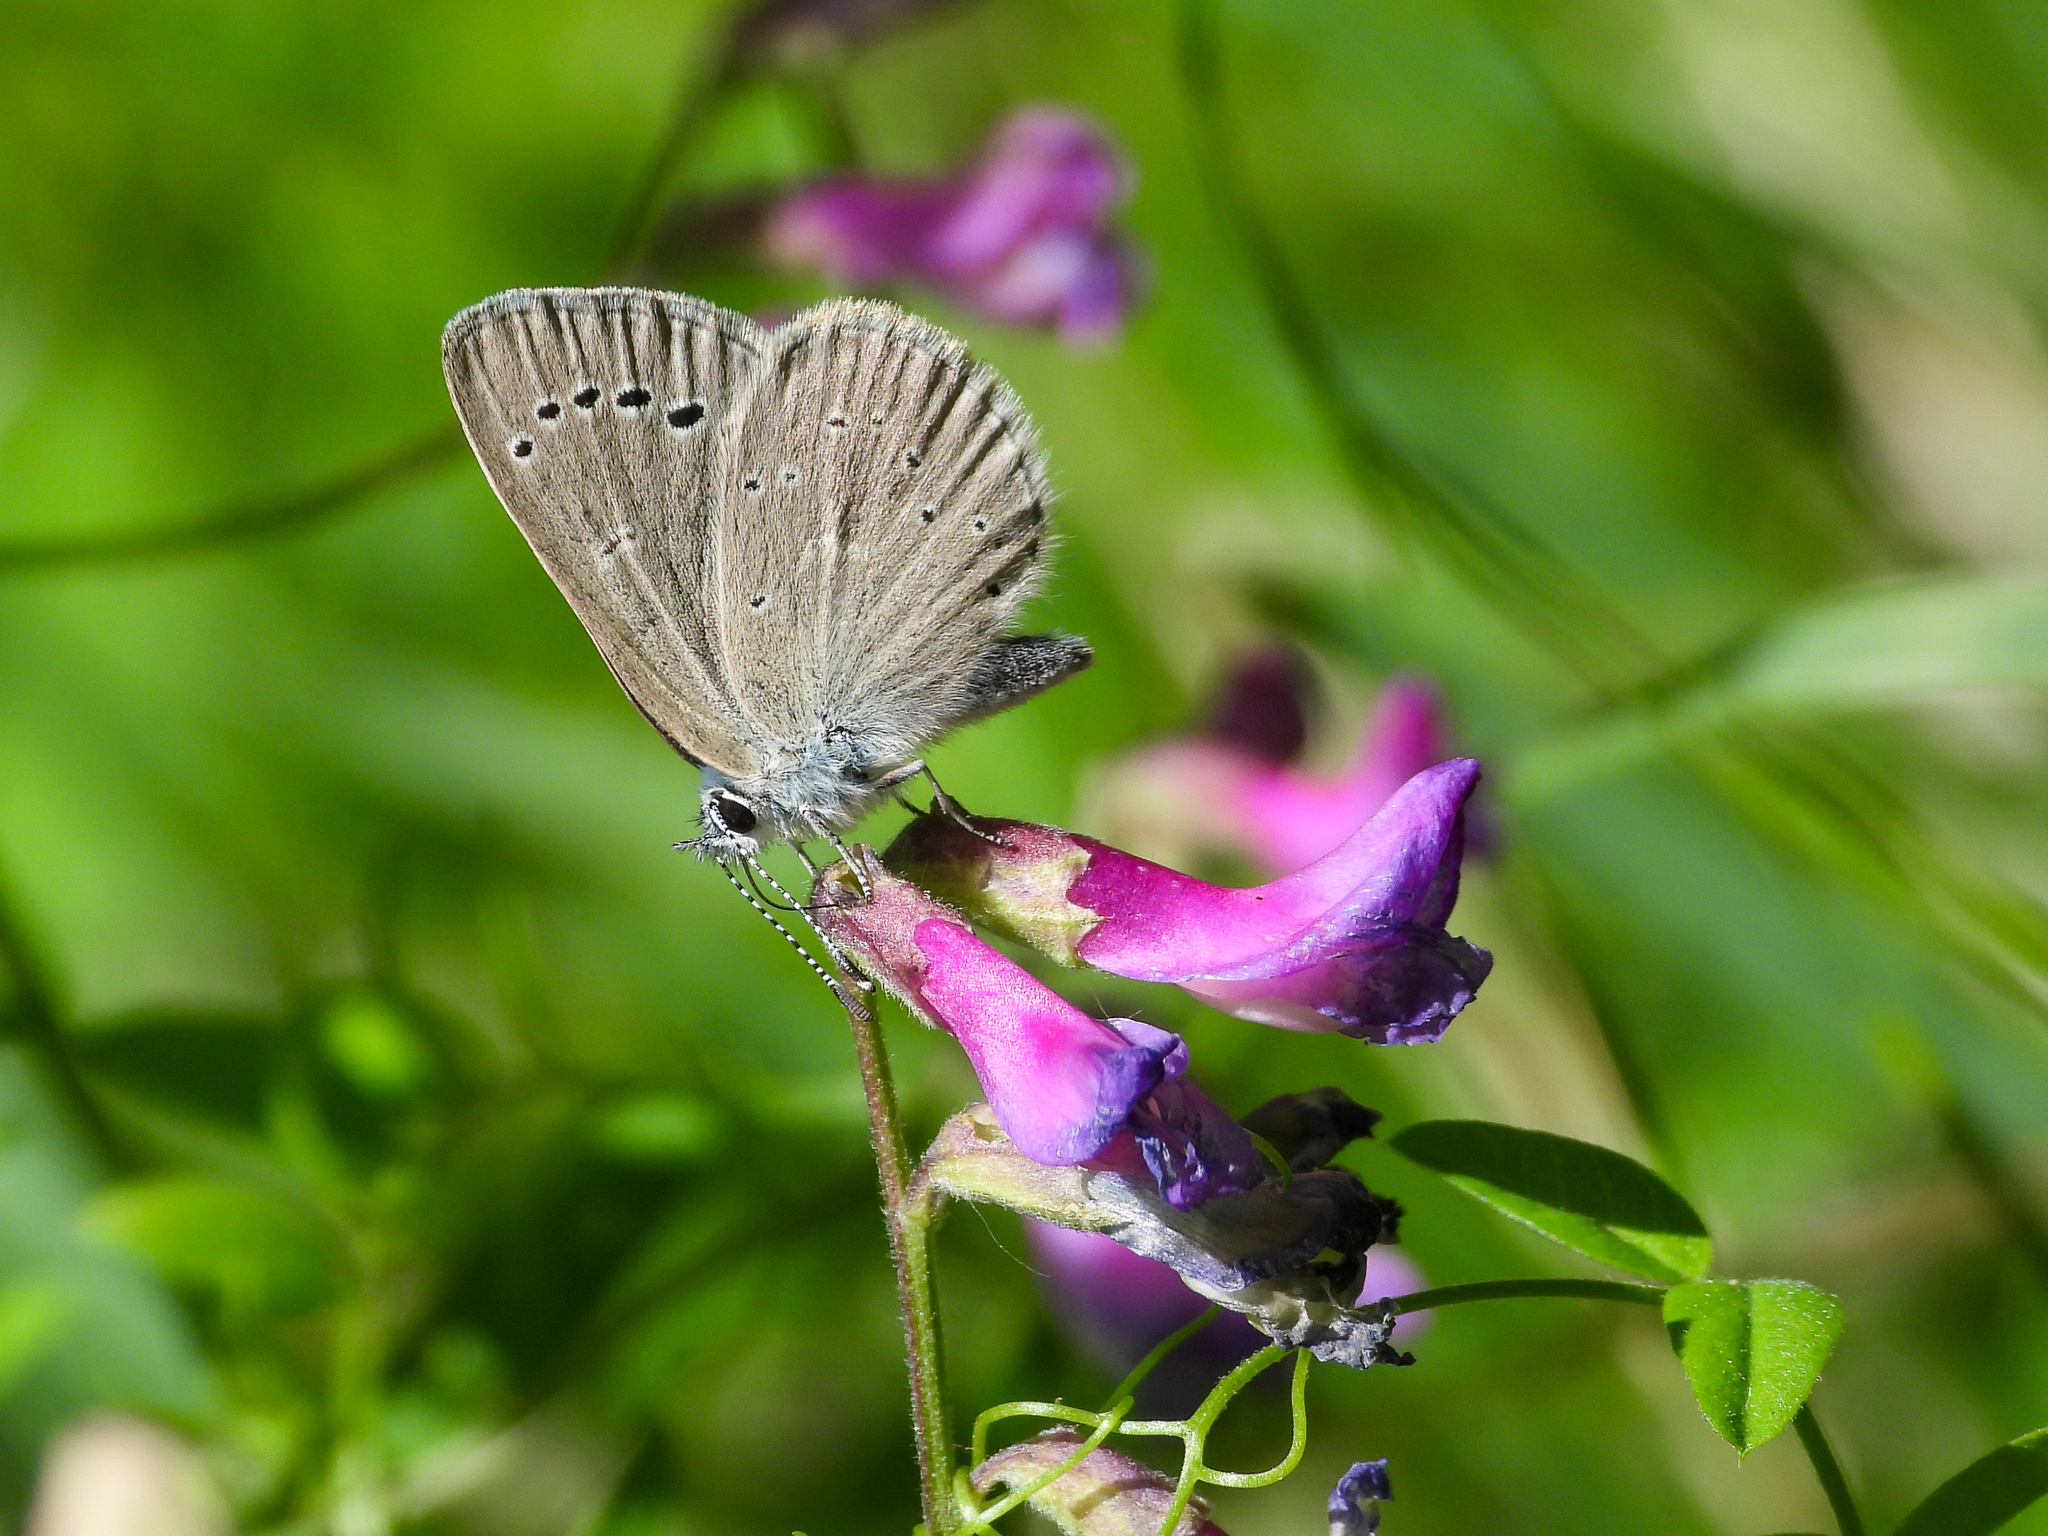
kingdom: Animalia
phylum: Arthropoda
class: Insecta
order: Lepidoptera
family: Lycaenidae
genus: Glaucopsyche
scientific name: Glaucopsyche lygdamus
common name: Silvery blue
